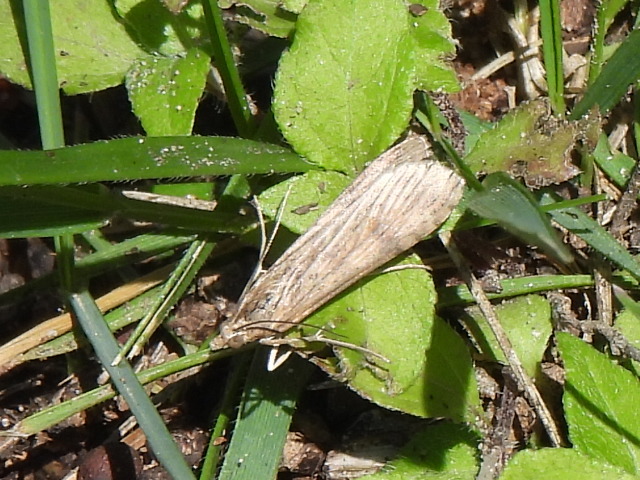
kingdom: Animalia
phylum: Arthropoda
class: Insecta
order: Lepidoptera
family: Crambidae
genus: Nomophila
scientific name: Nomophila nearctica
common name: American rush veneer
